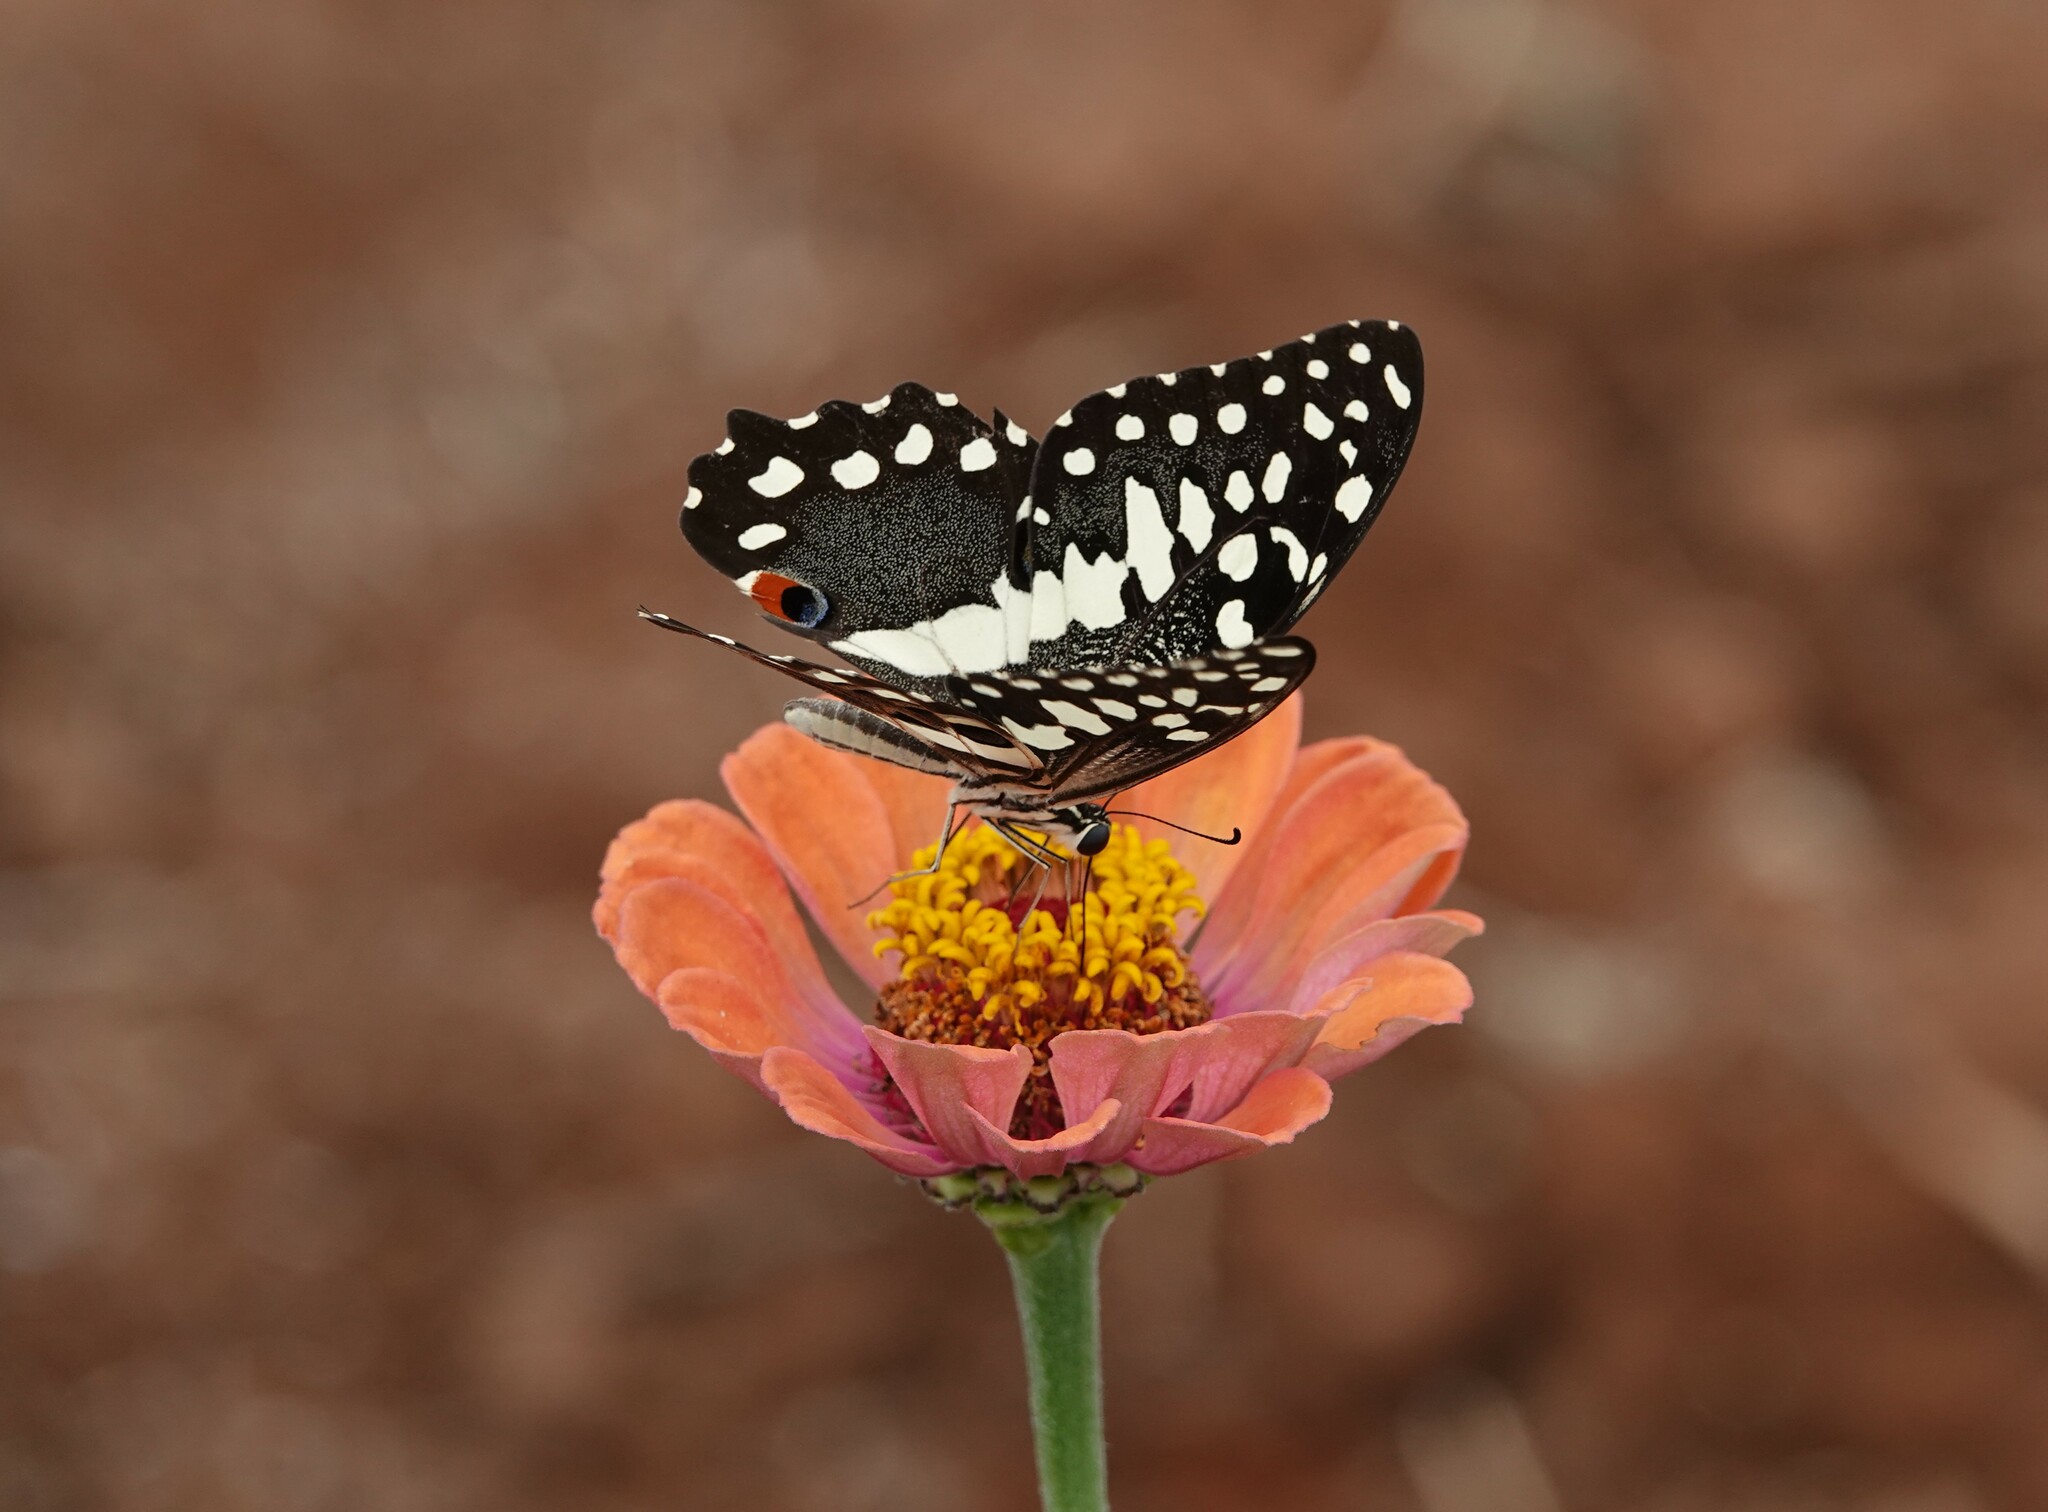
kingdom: Animalia
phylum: Arthropoda
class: Insecta
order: Lepidoptera
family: Papilionidae
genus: Papilio
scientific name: Papilio demodocus
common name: Christmas butterfly
